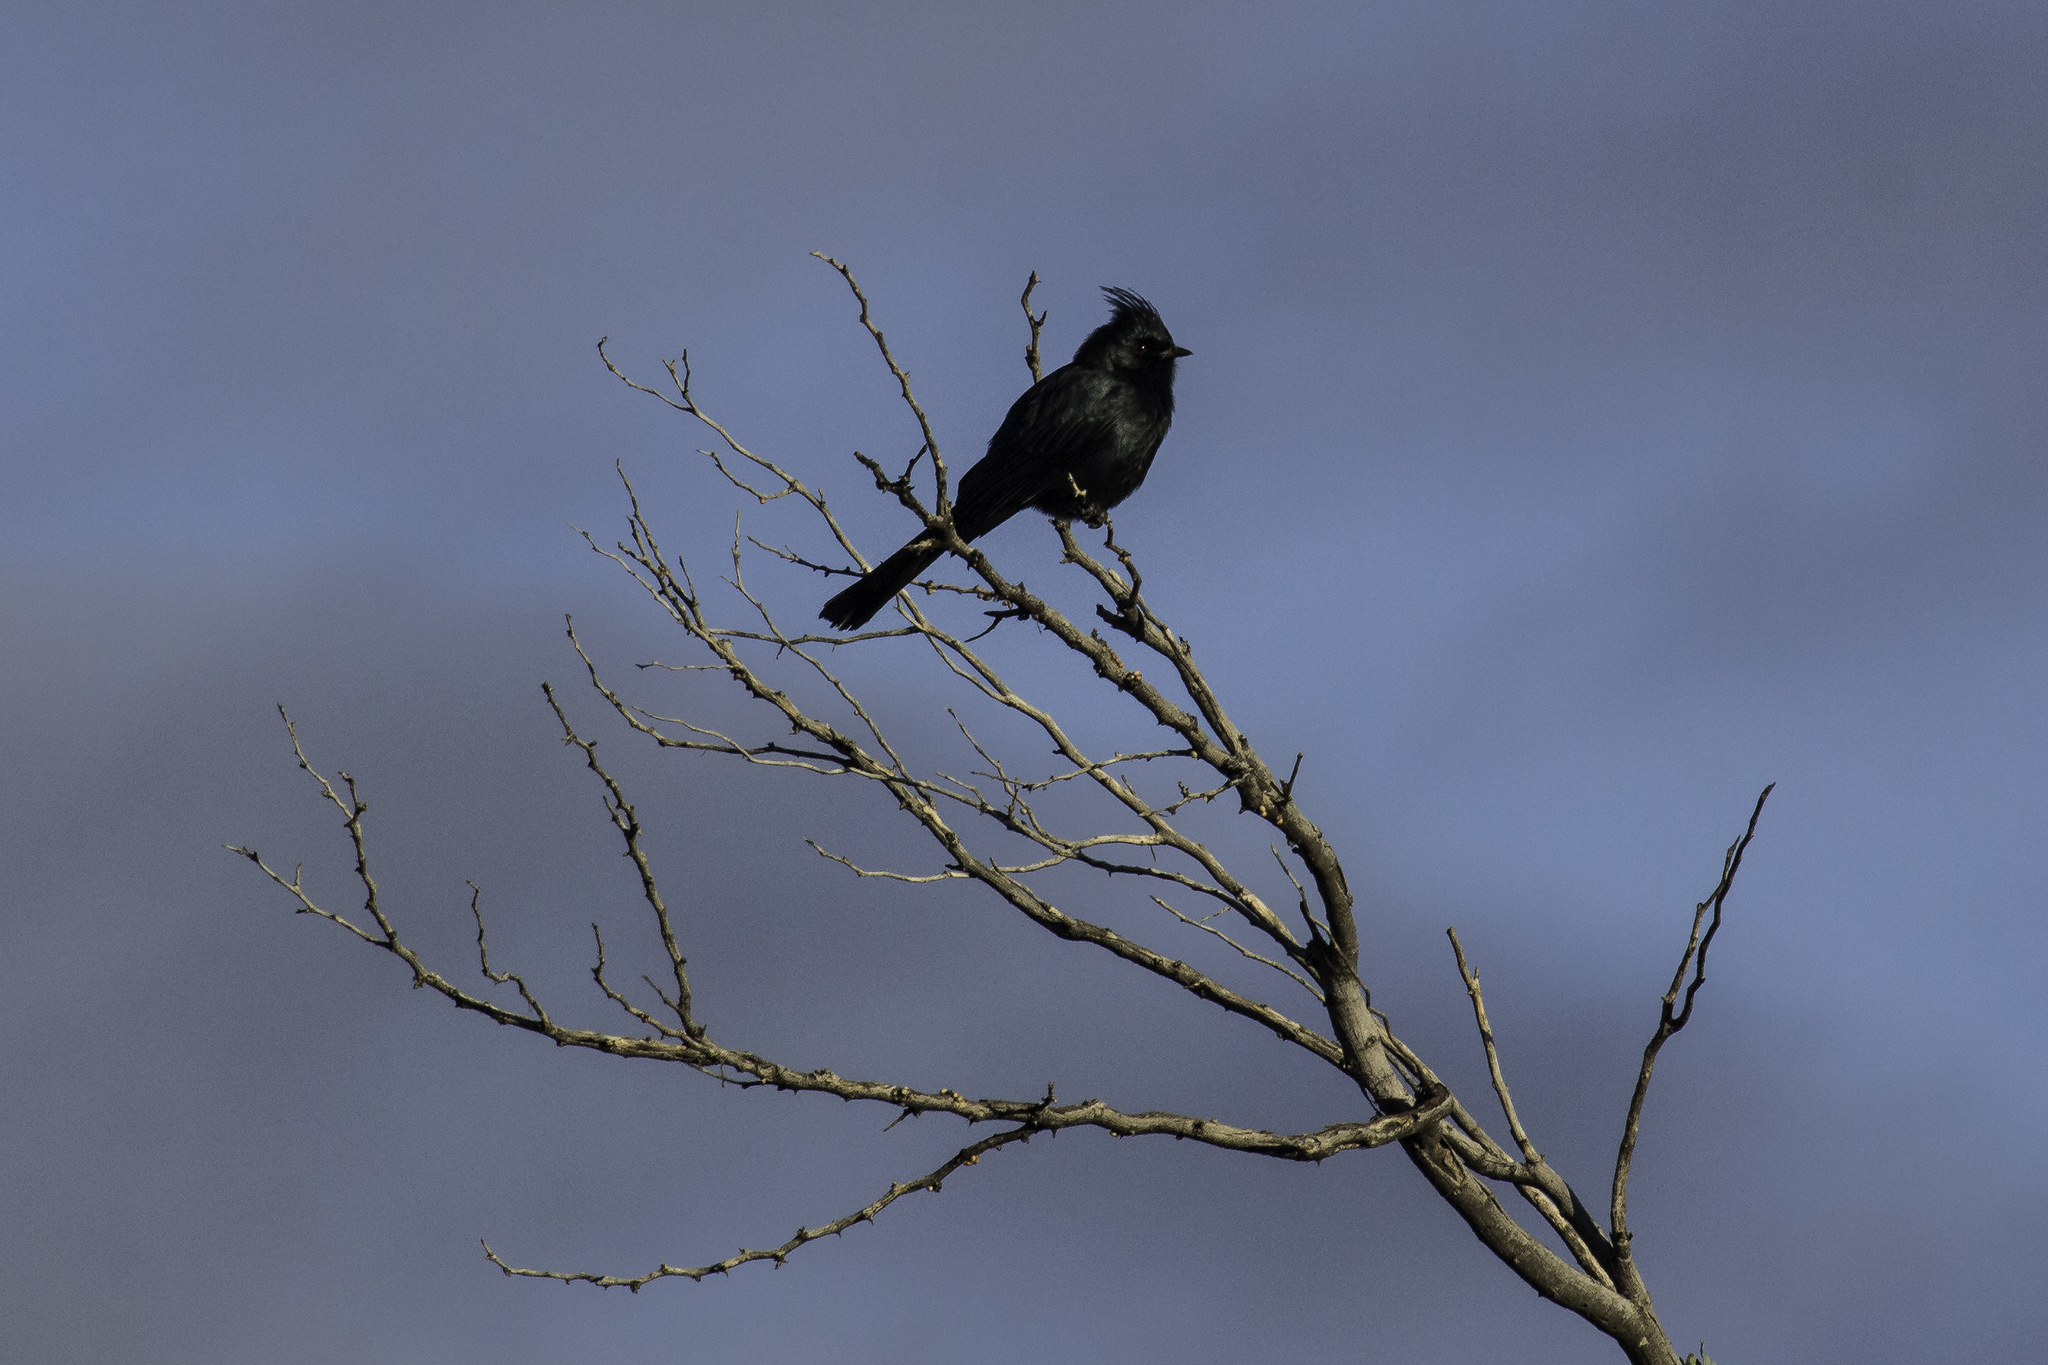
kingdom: Animalia
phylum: Chordata
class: Aves
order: Passeriformes
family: Ptilogonatidae
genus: Phainopepla
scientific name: Phainopepla nitens
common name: Phainopepla
